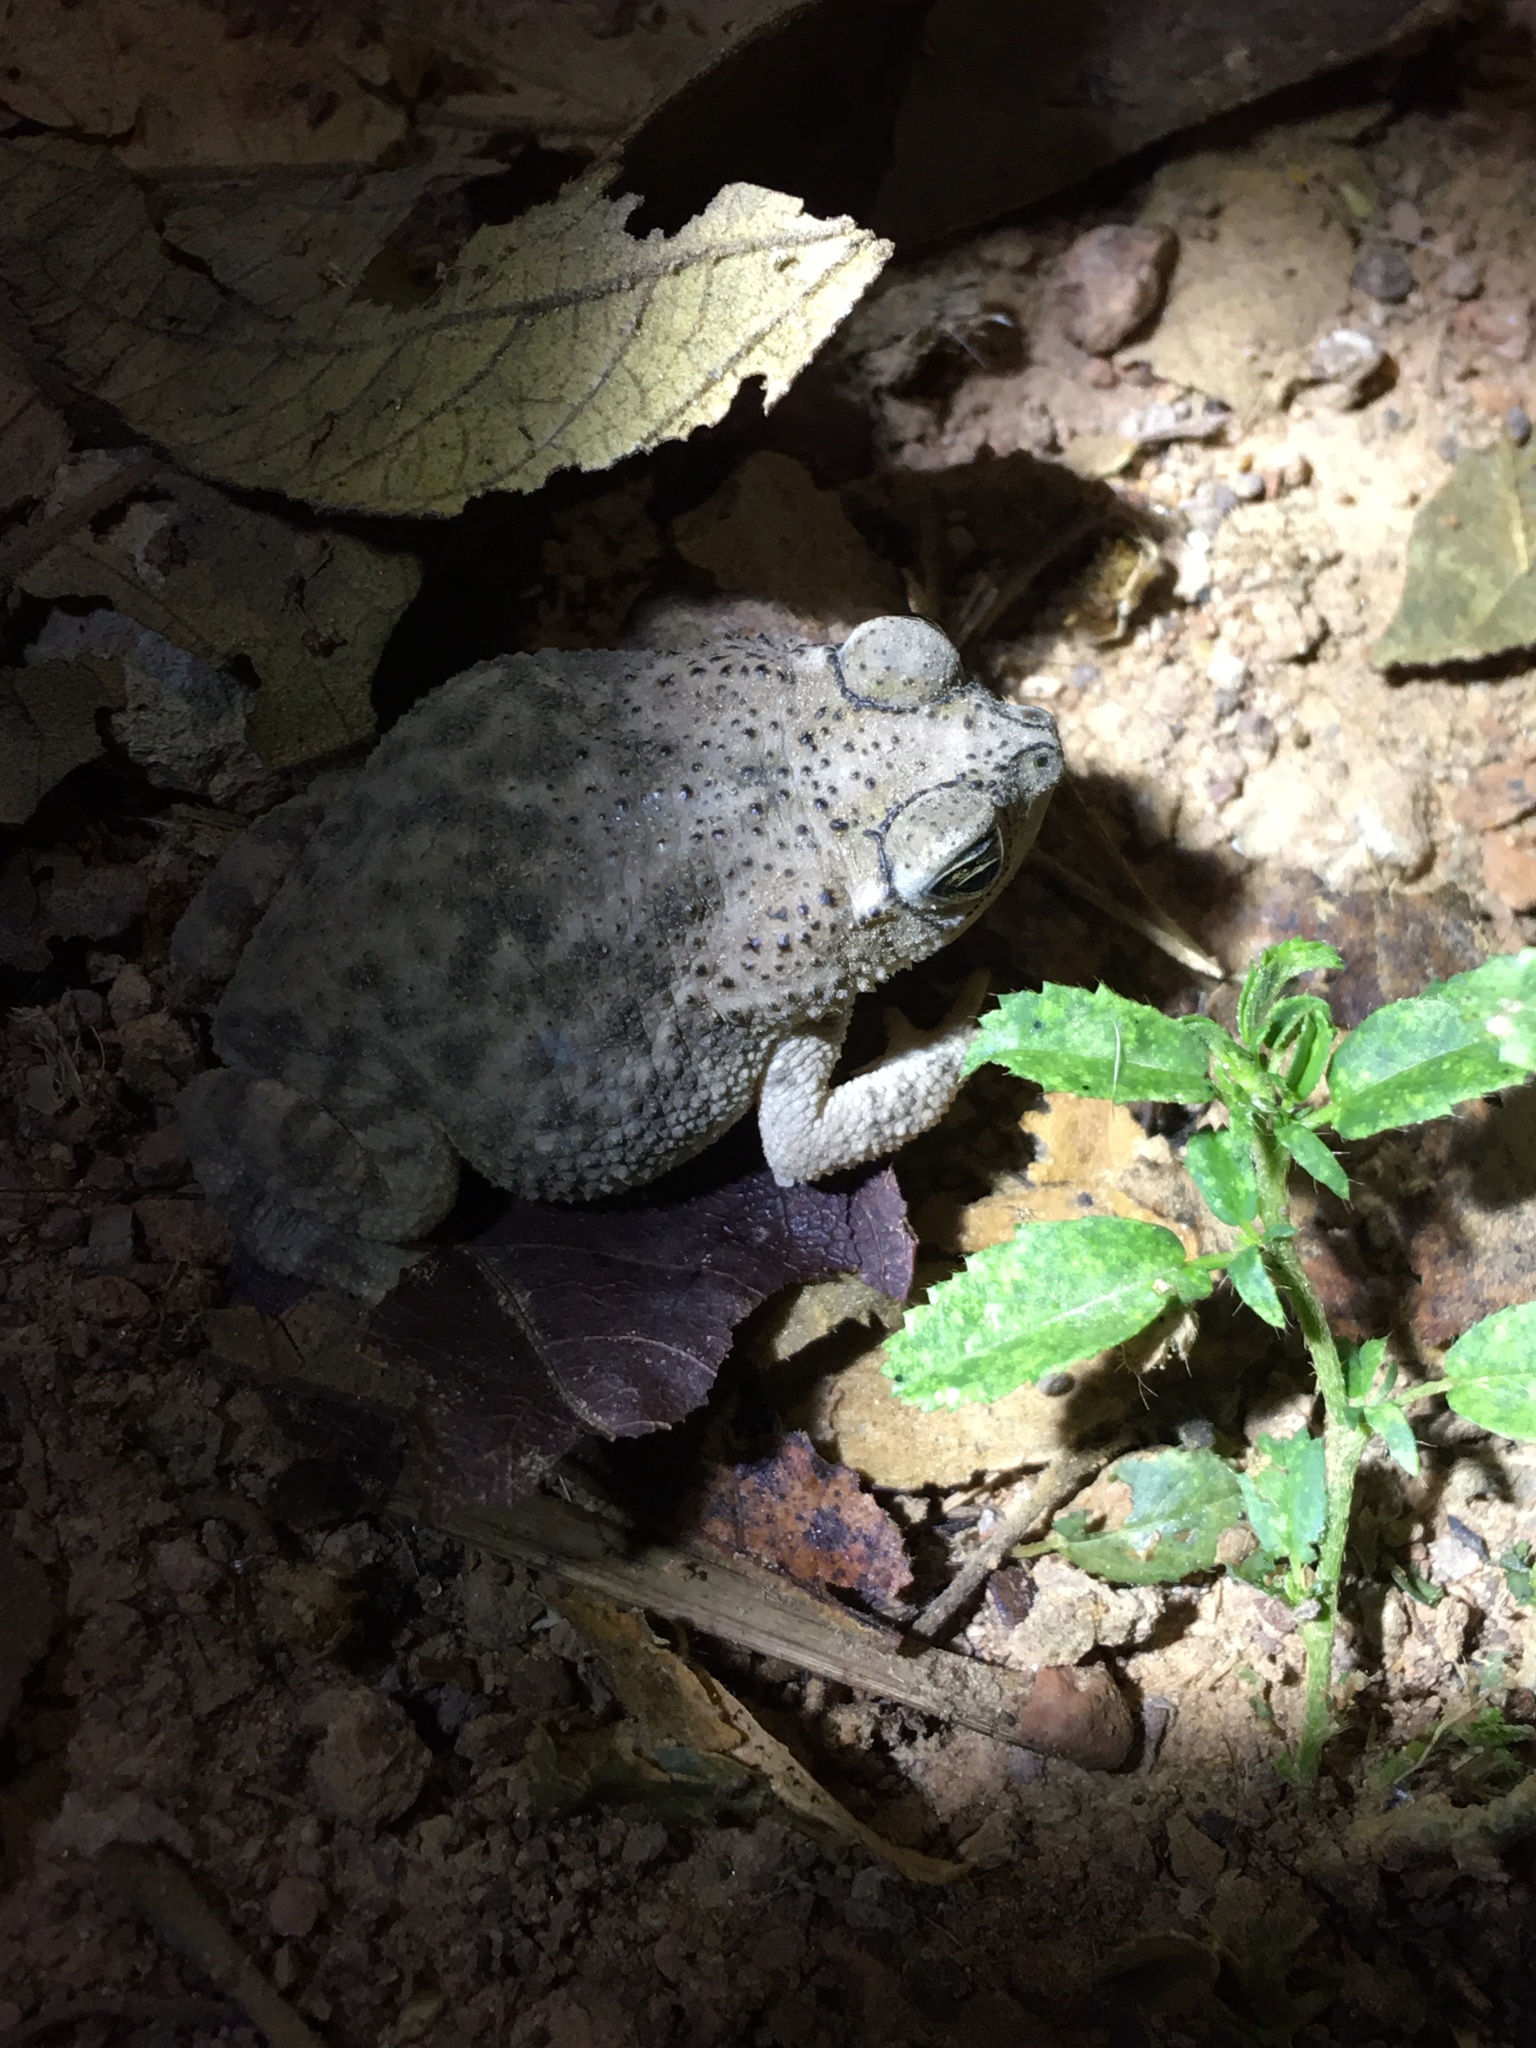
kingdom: Animalia
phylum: Chordata
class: Amphibia
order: Anura
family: Bufonidae
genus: Rhinella
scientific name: Rhinella major
